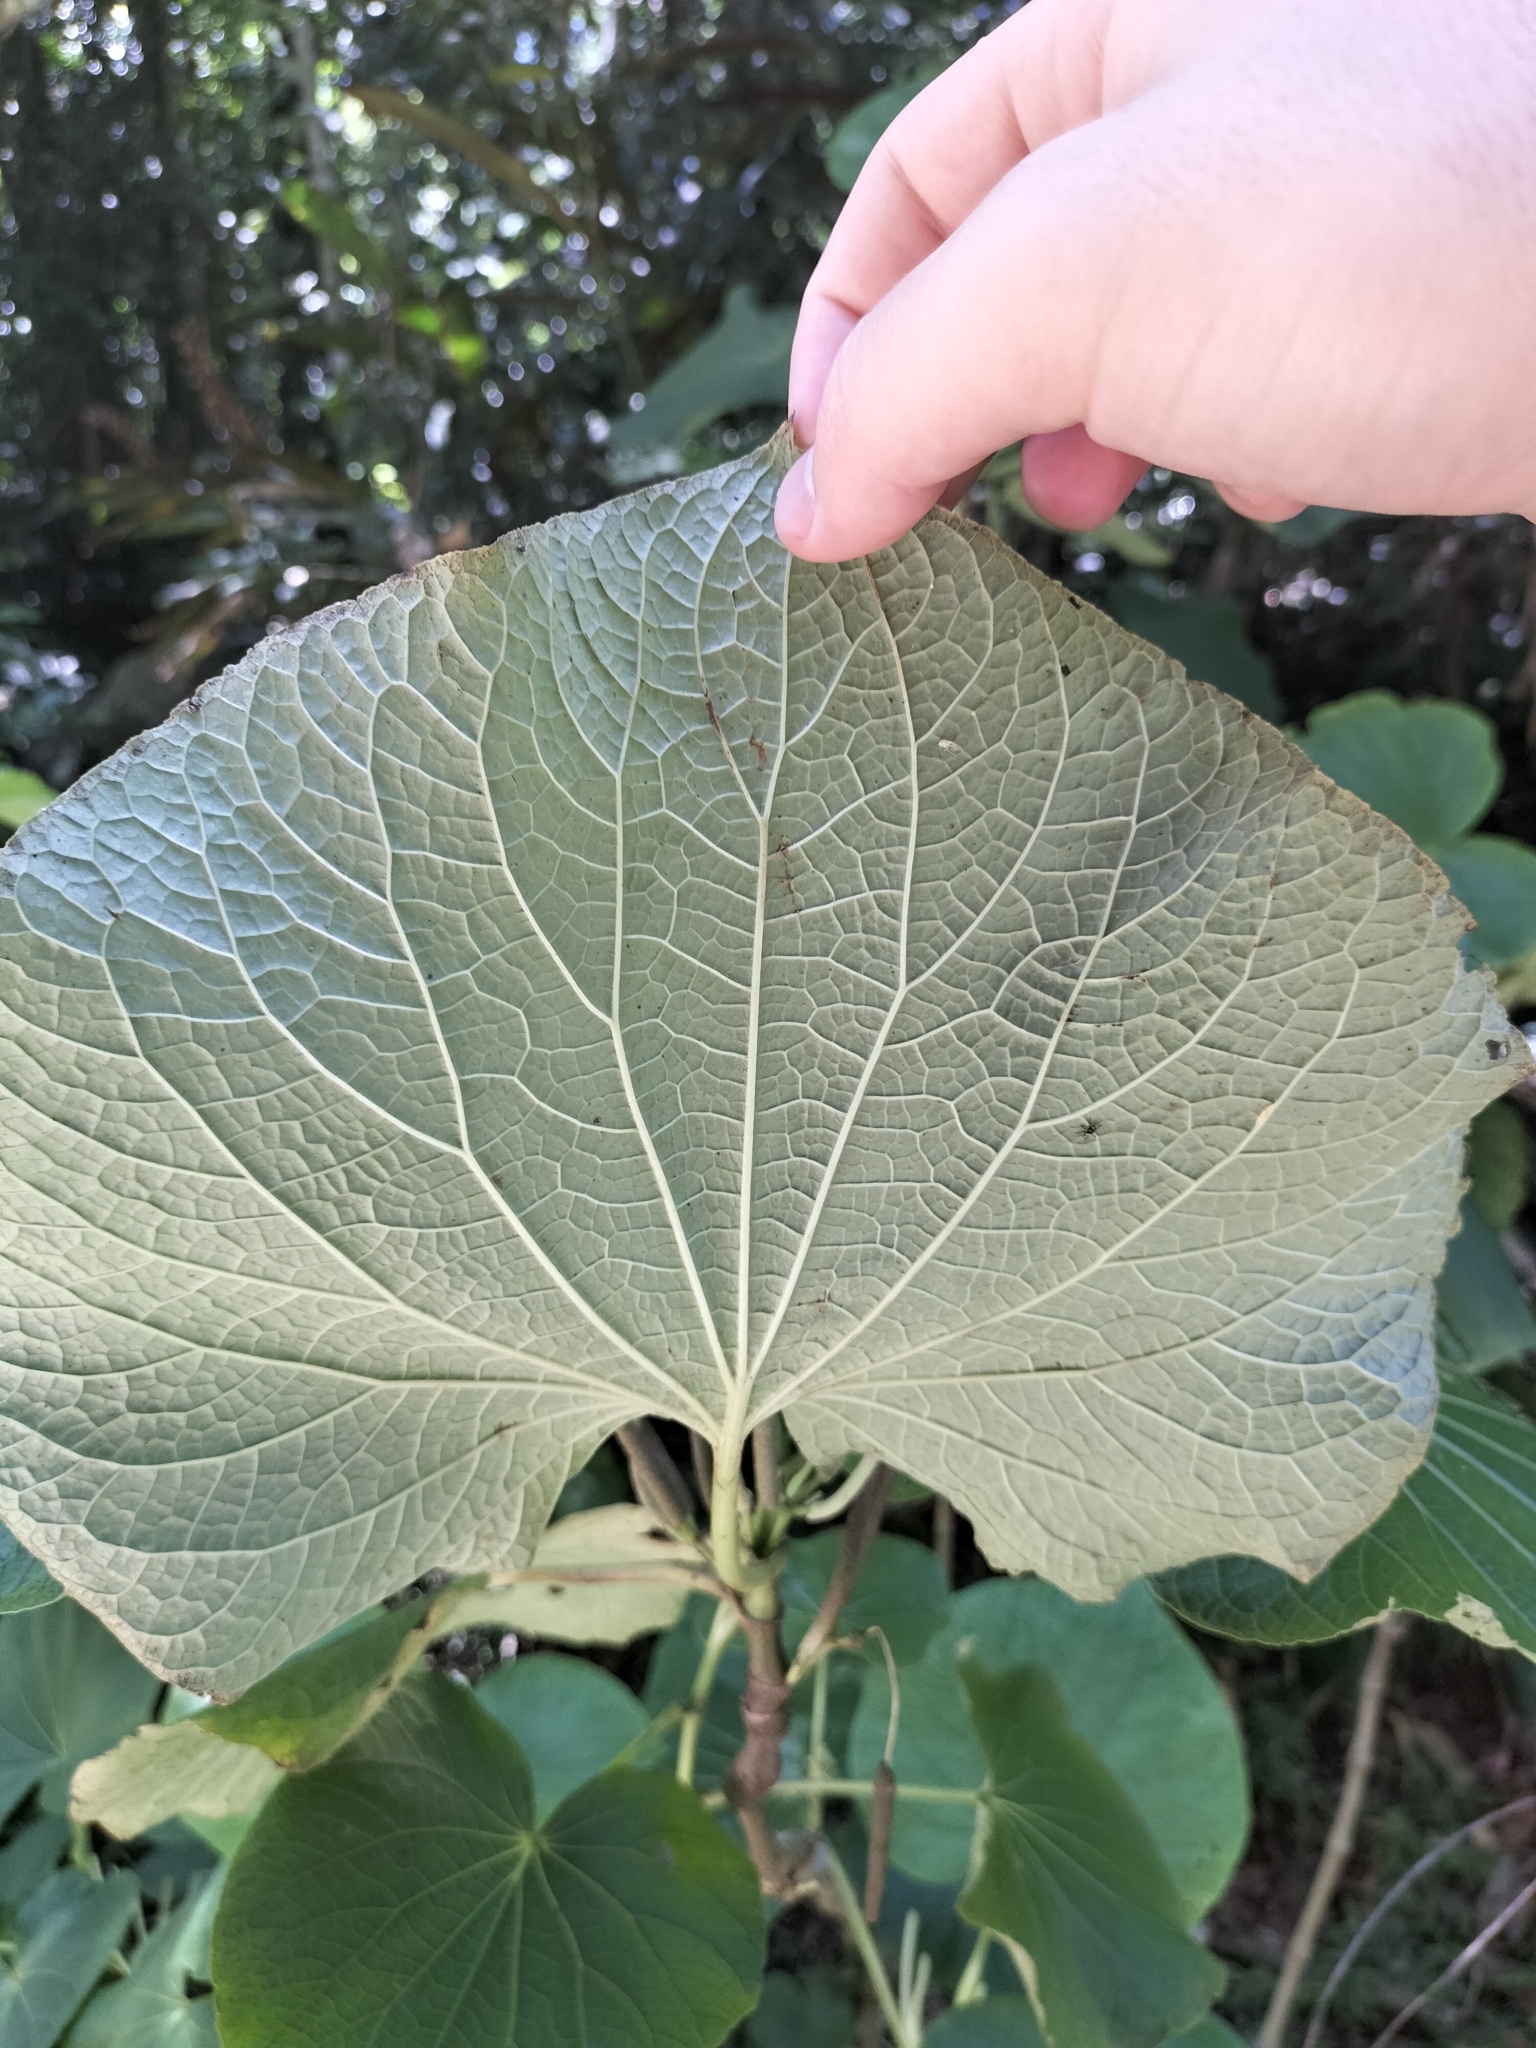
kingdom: Plantae
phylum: Tracheophyta
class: Magnoliopsida
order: Piperales
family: Piperaceae
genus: Piper
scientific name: Piper umbellatum
